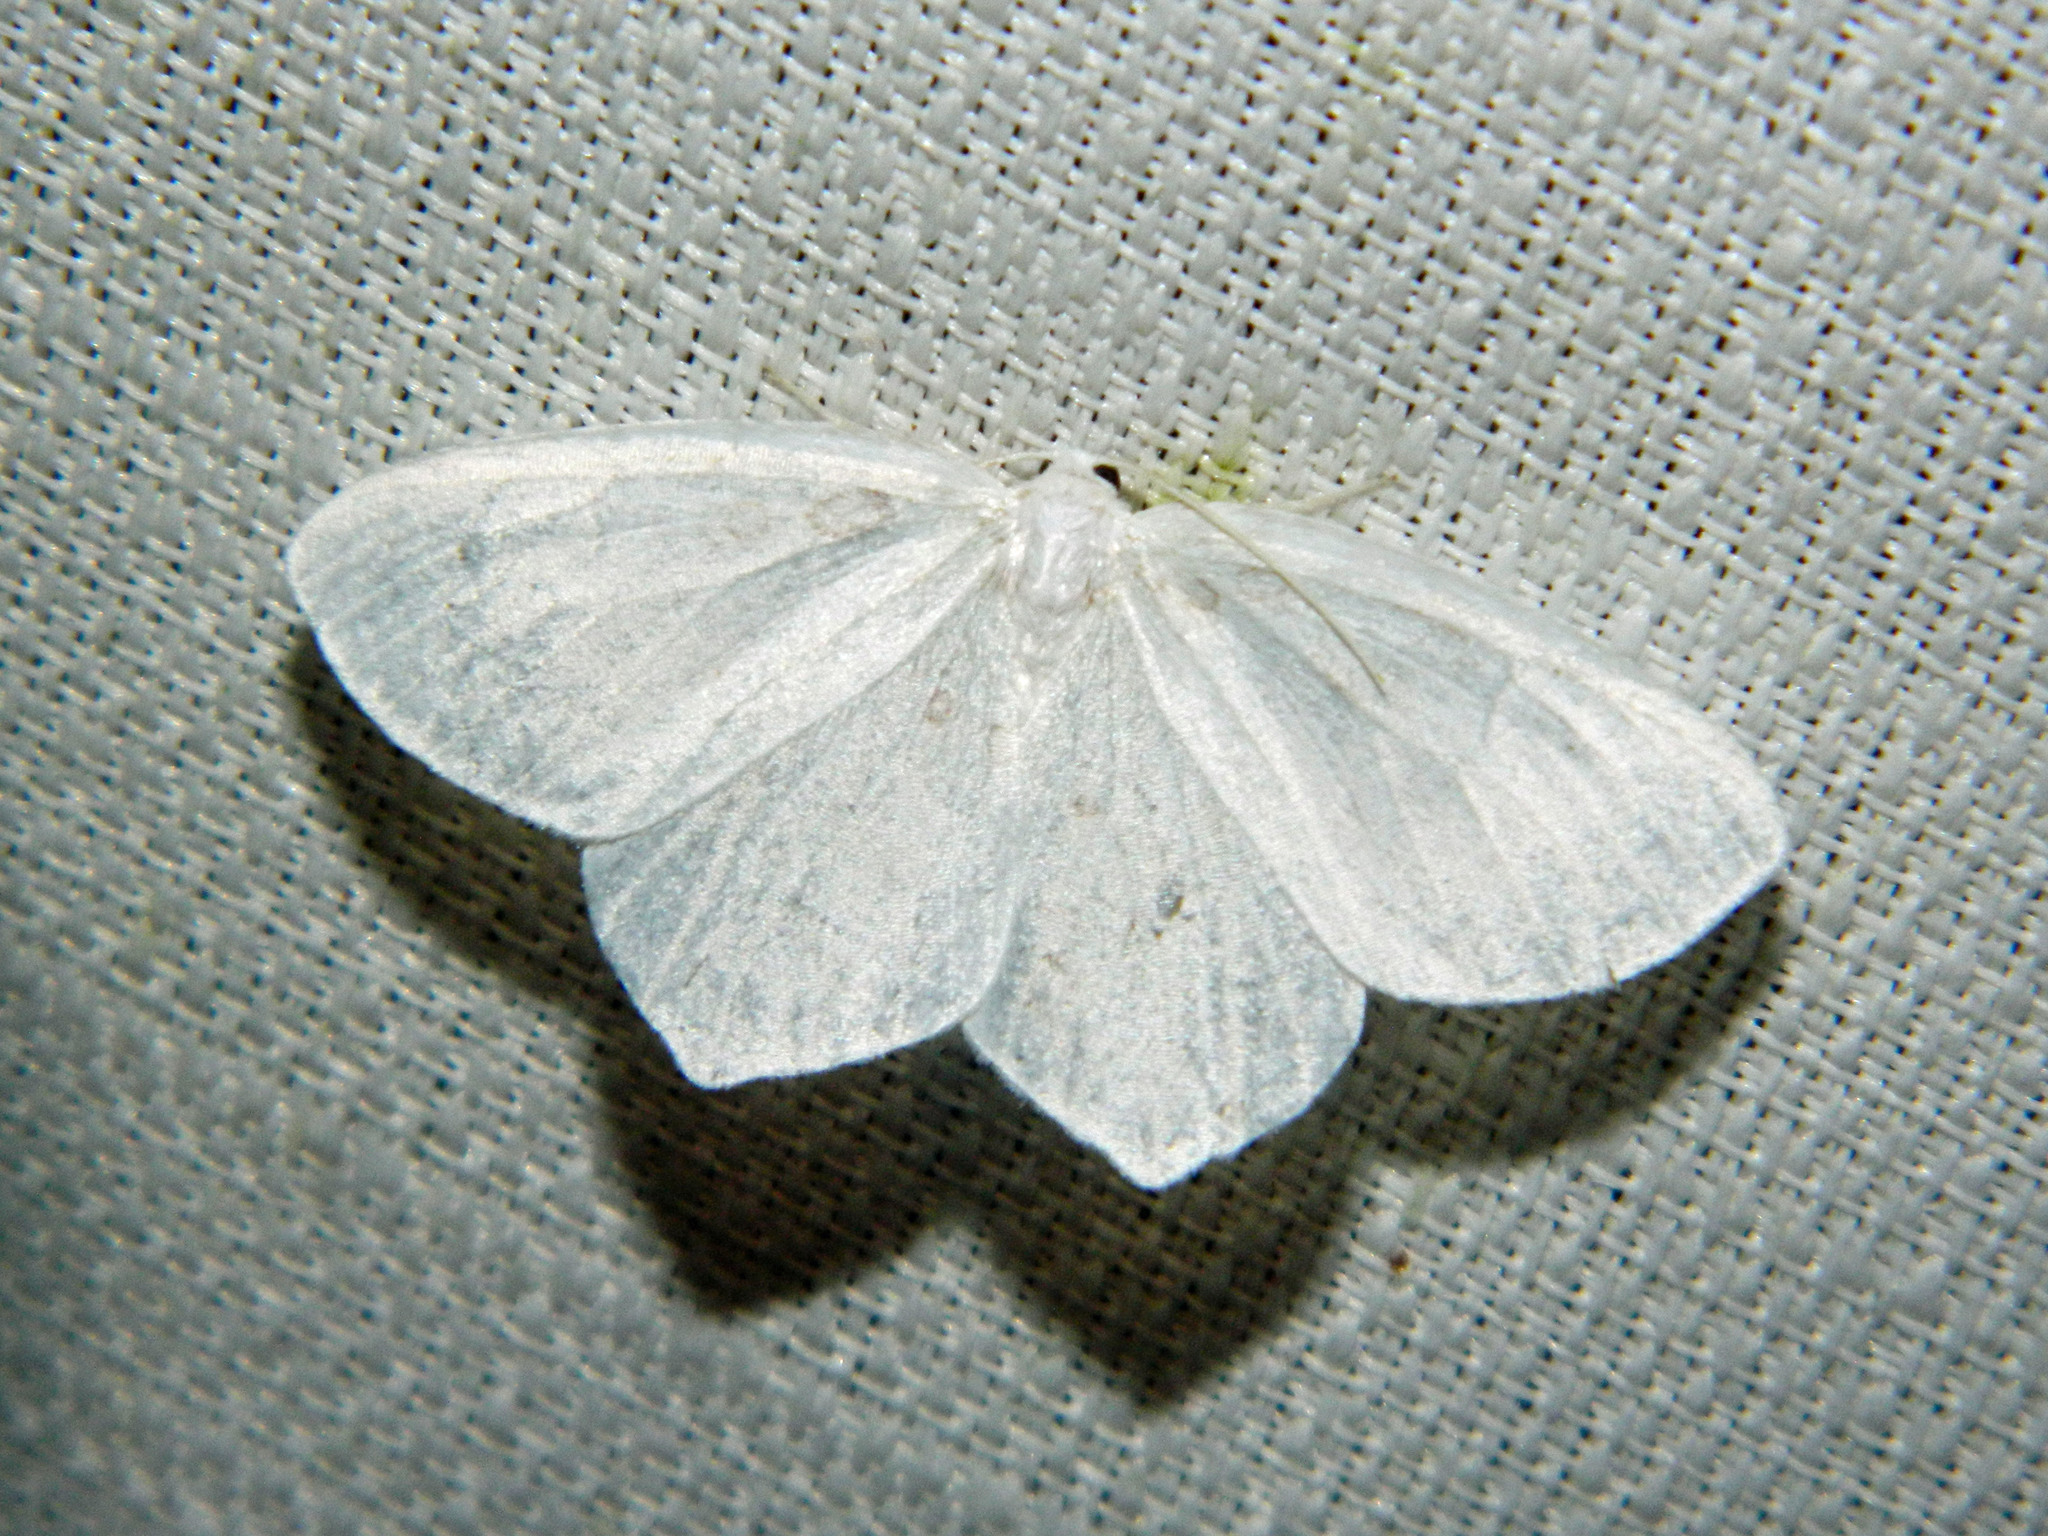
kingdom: Animalia
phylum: Arthropoda
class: Insecta
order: Lepidoptera
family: Geometridae
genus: Eugonobapta
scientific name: Eugonobapta nivosaria
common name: Snowy geometer
